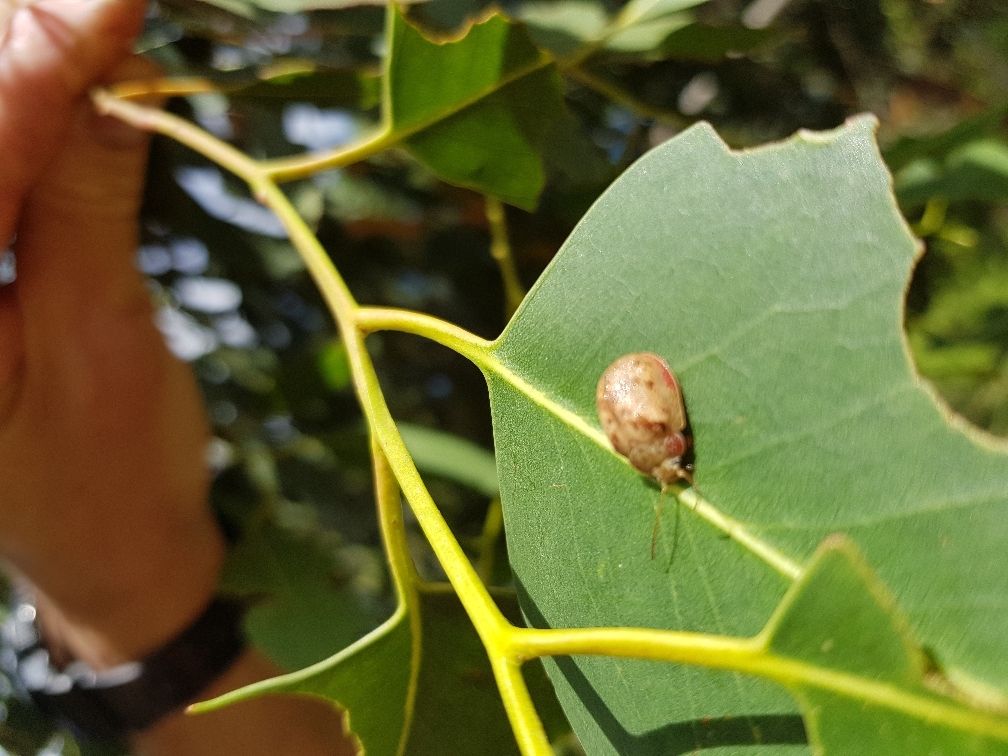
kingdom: Animalia
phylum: Arthropoda
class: Insecta
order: Coleoptera
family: Chrysomelidae
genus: Paropsis
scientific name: Paropsis charybdis
